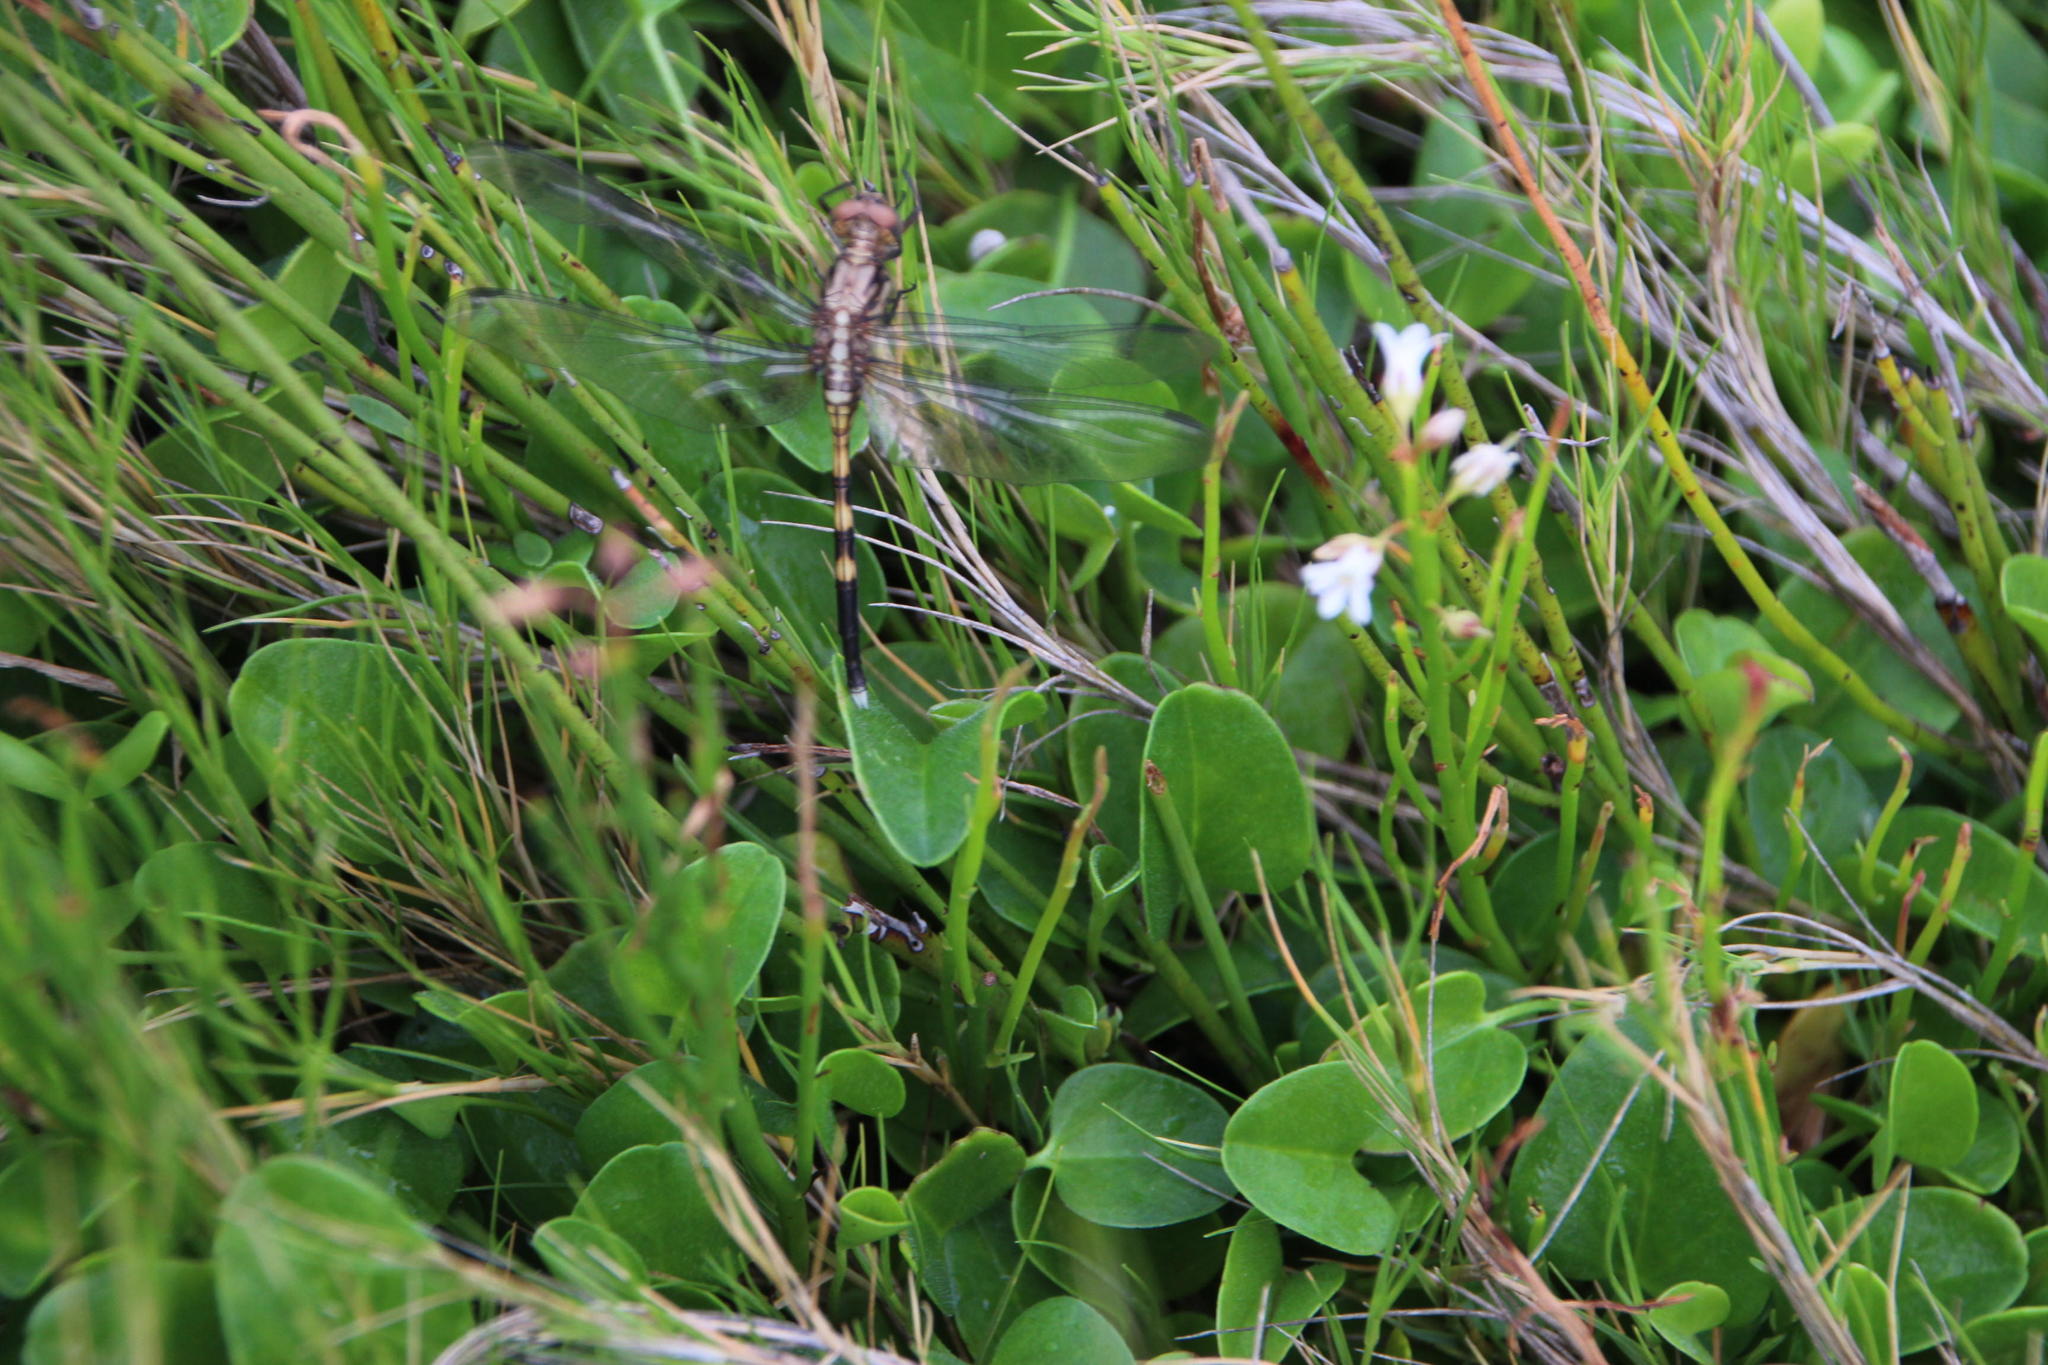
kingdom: Animalia
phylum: Arthropoda
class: Insecta
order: Odonata
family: Libellulidae
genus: Orthetrum
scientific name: Orthetrum julia
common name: Julia skimmer
